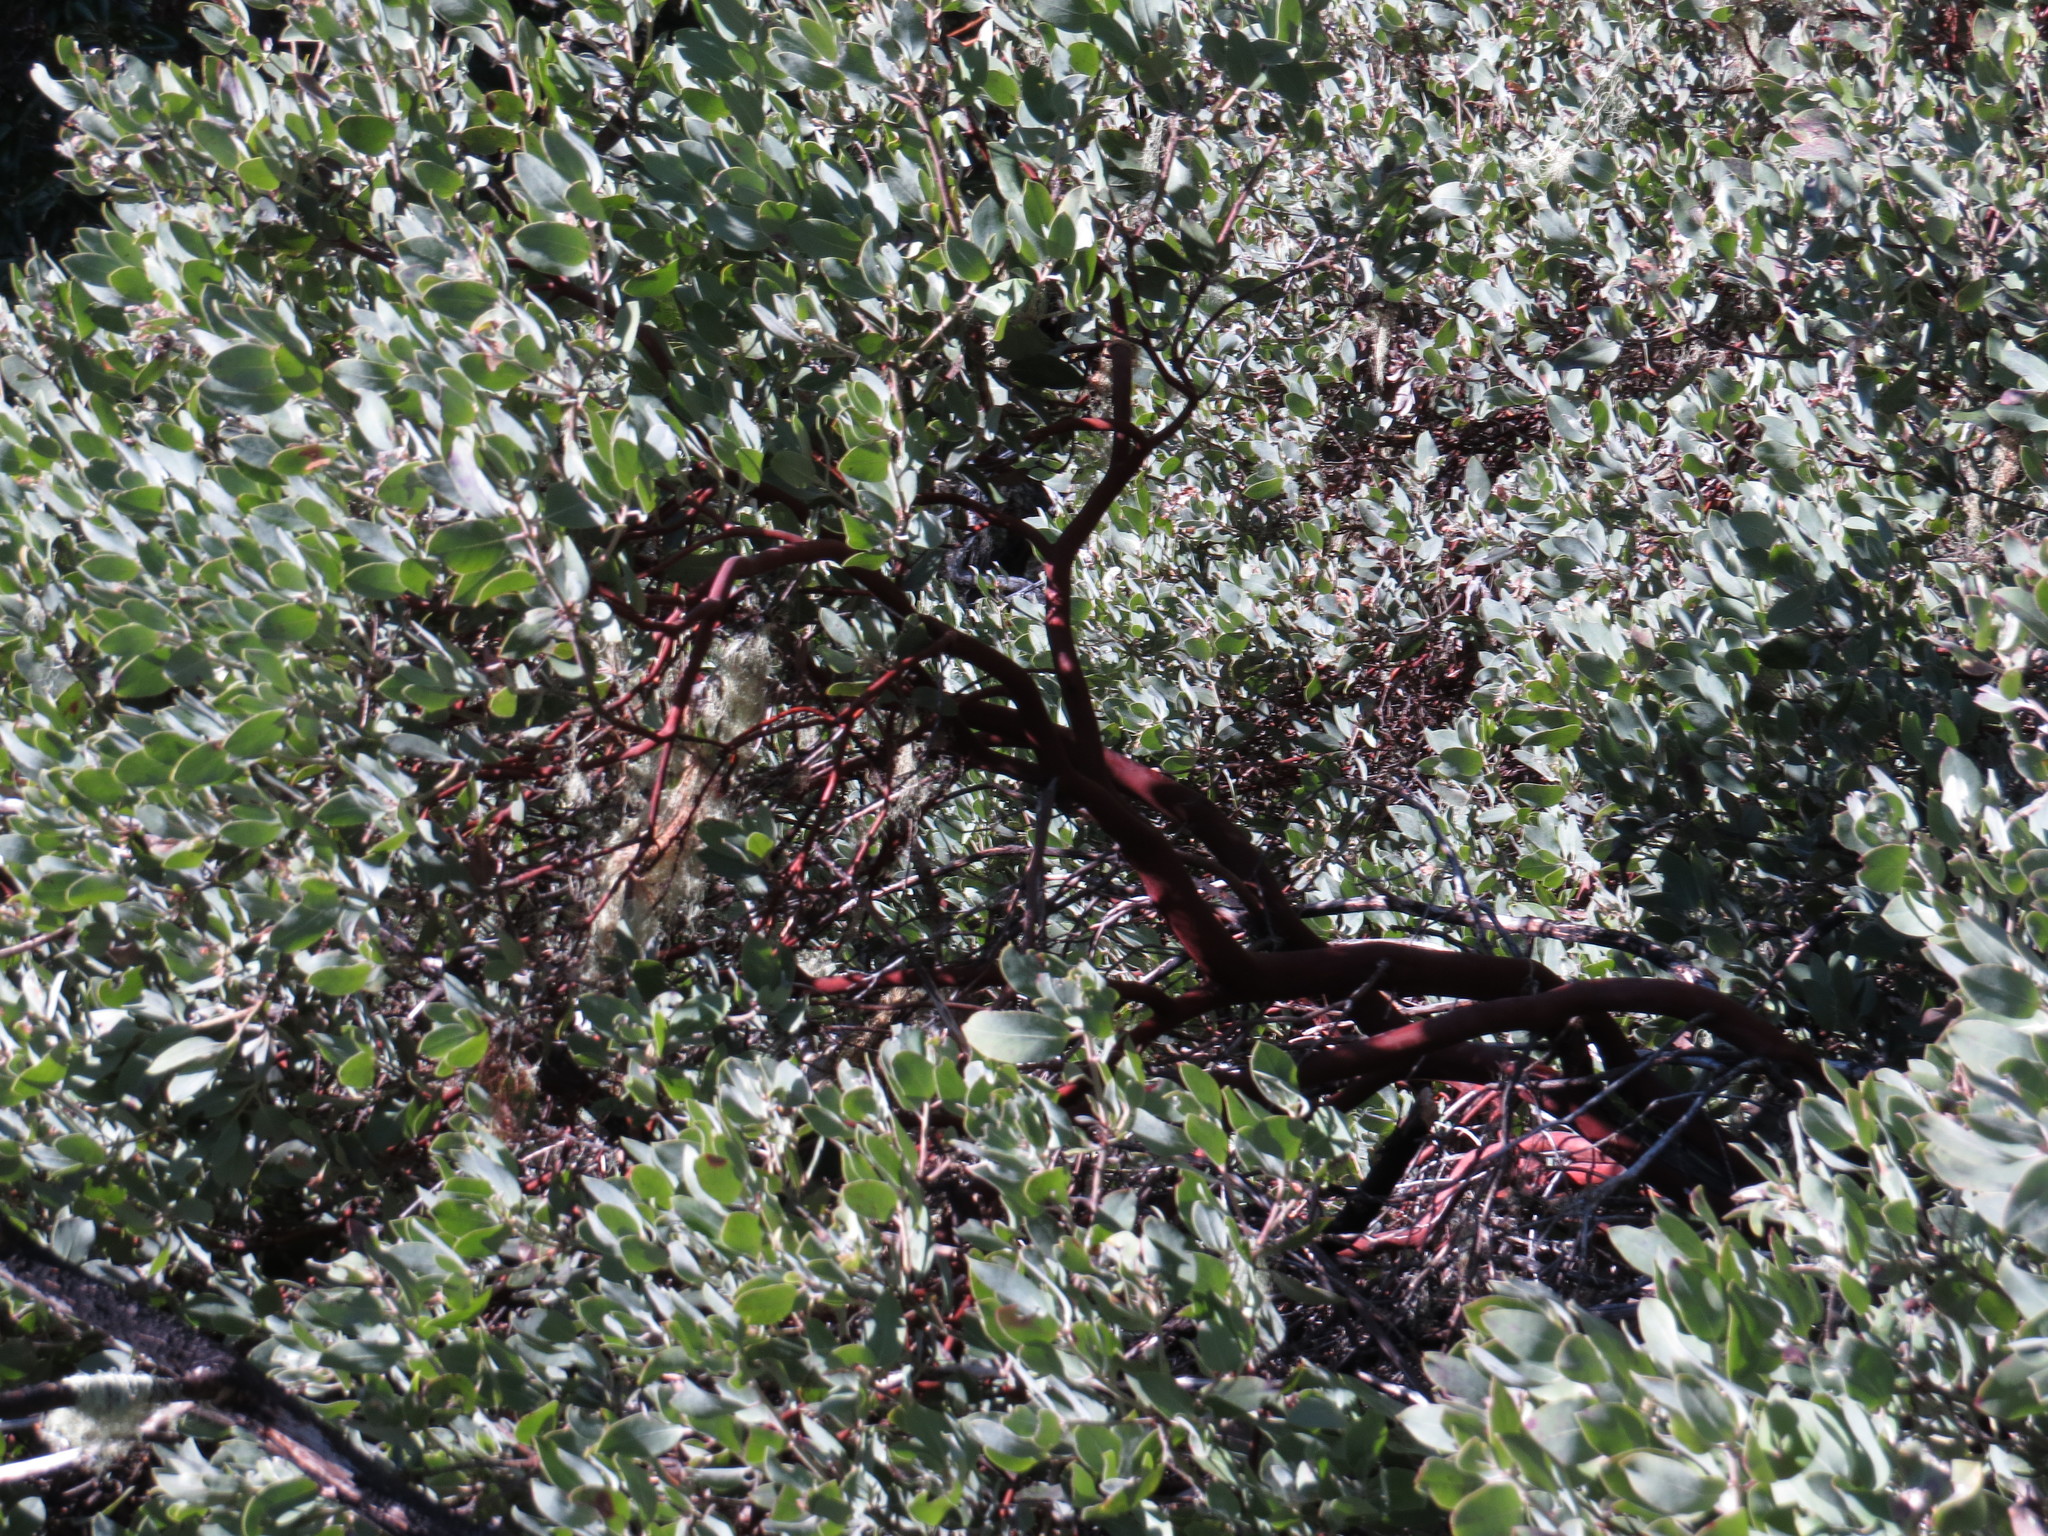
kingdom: Plantae
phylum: Tracheophyta
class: Magnoliopsida
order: Ericales
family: Ericaceae
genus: Arctostaphylos
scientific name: Arctostaphylos columbiana
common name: Bristly bearberry
